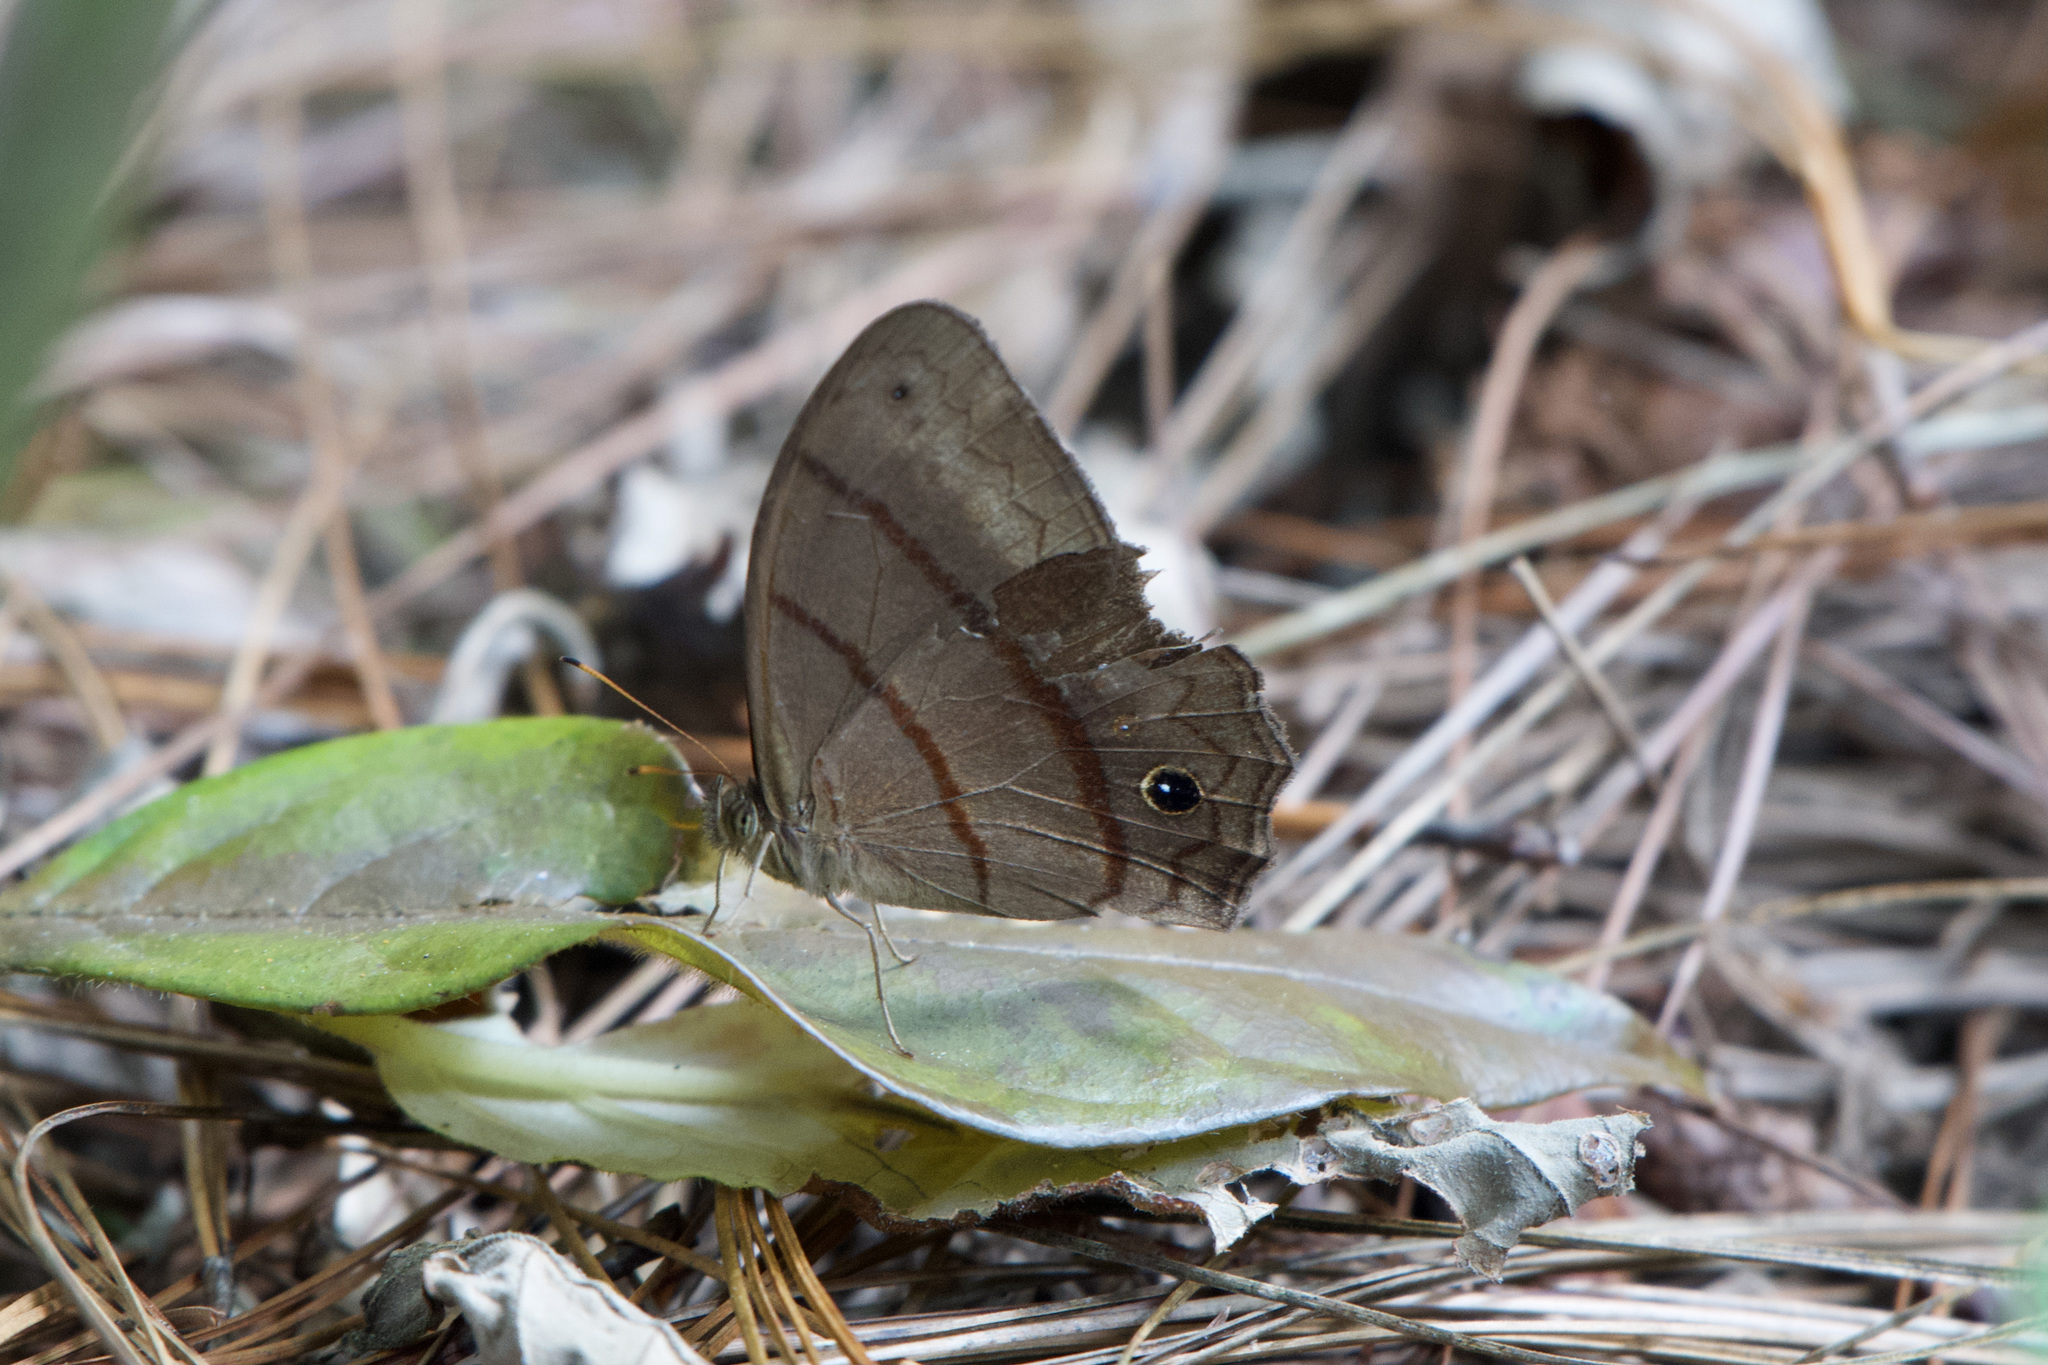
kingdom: Animalia
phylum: Arthropoda
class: Insecta
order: Lepidoptera
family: Nymphalidae
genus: Satyrotaygetis
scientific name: Satyrotaygetis satyrina
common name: Wide-bordered satyr
